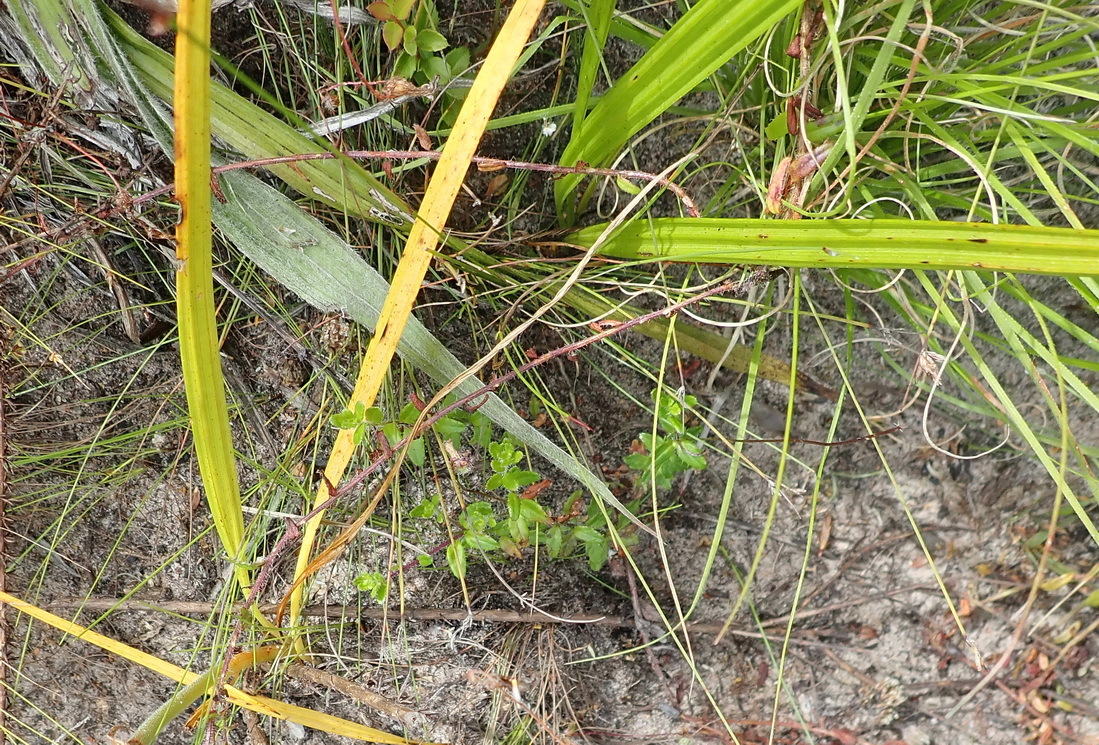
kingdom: Plantae
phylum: Tracheophyta
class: Liliopsida
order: Commelinales
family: Haemodoraceae
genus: Wachendorfia
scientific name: Wachendorfia paniculata
